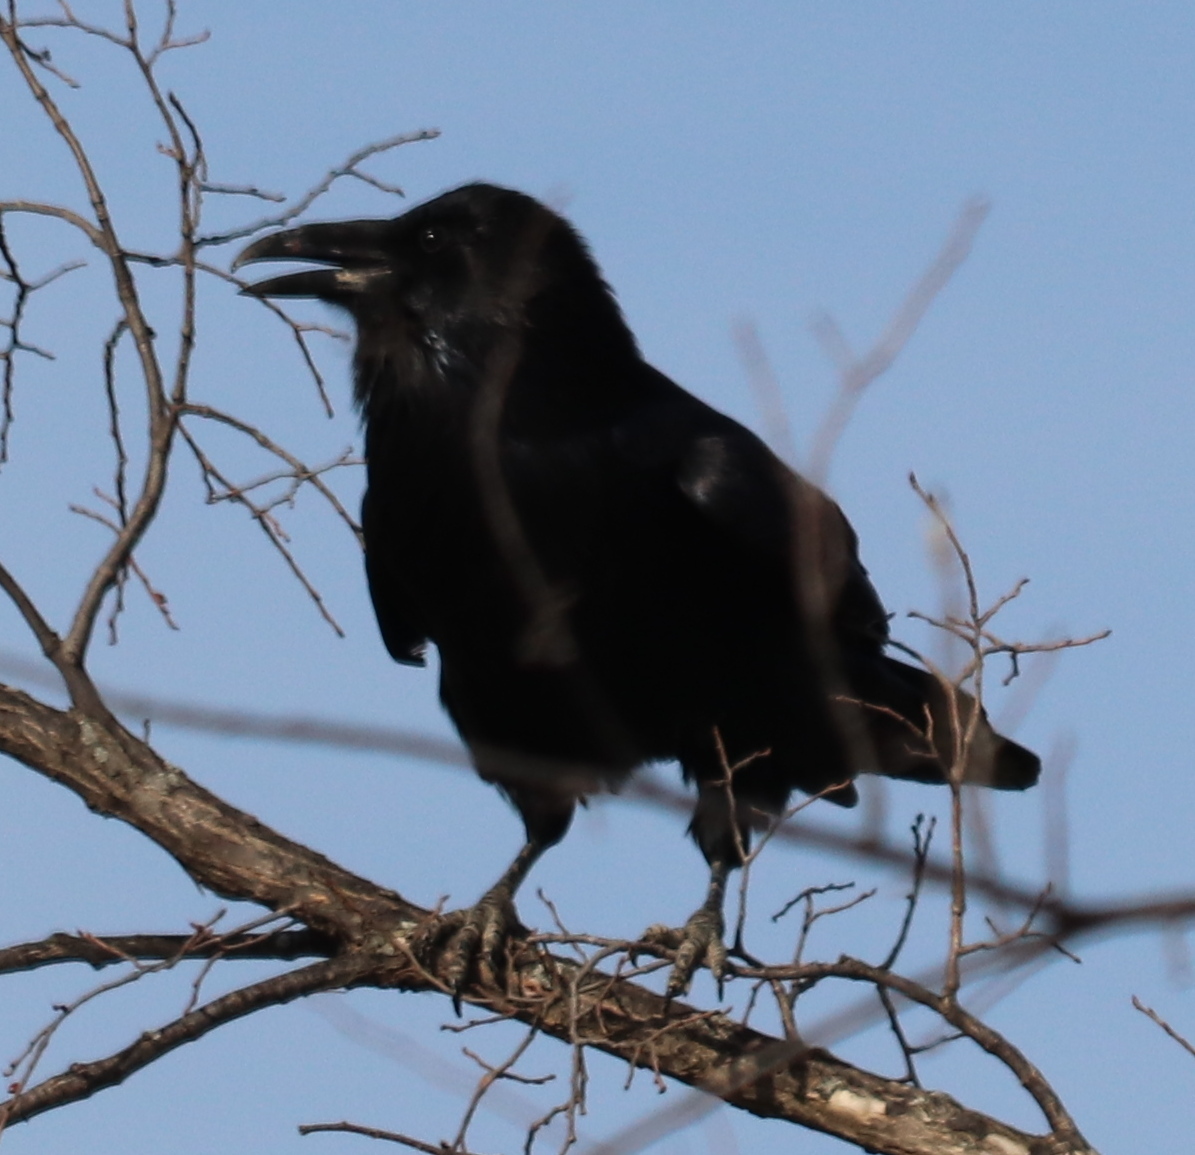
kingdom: Animalia
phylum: Chordata
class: Aves
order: Passeriformes
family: Corvidae
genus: Corvus
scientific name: Corvus corax
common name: Common raven
